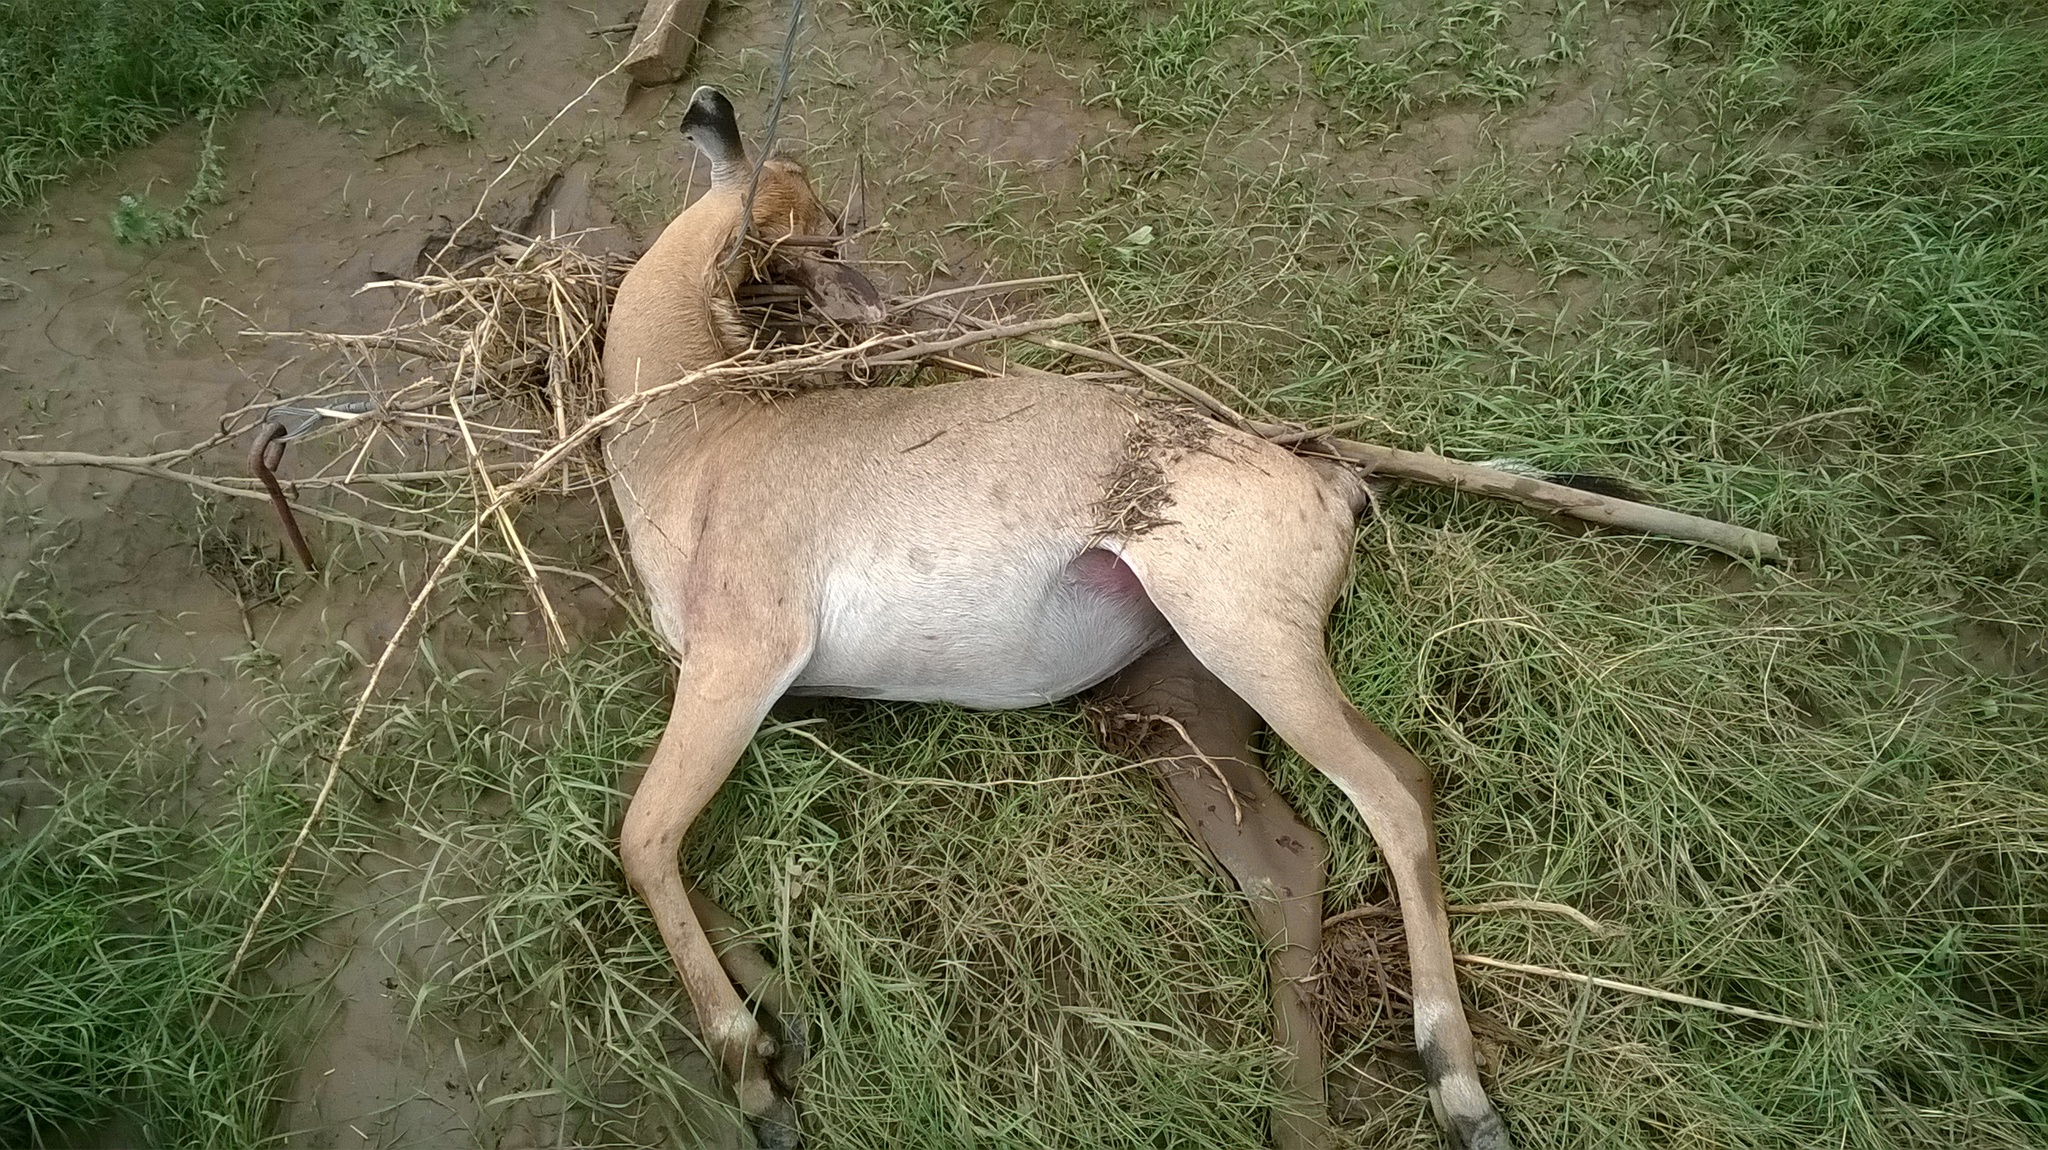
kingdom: Animalia
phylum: Chordata
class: Mammalia
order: Artiodactyla
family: Bovidae
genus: Boselaphus
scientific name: Boselaphus tragocamelus
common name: Nilgai
